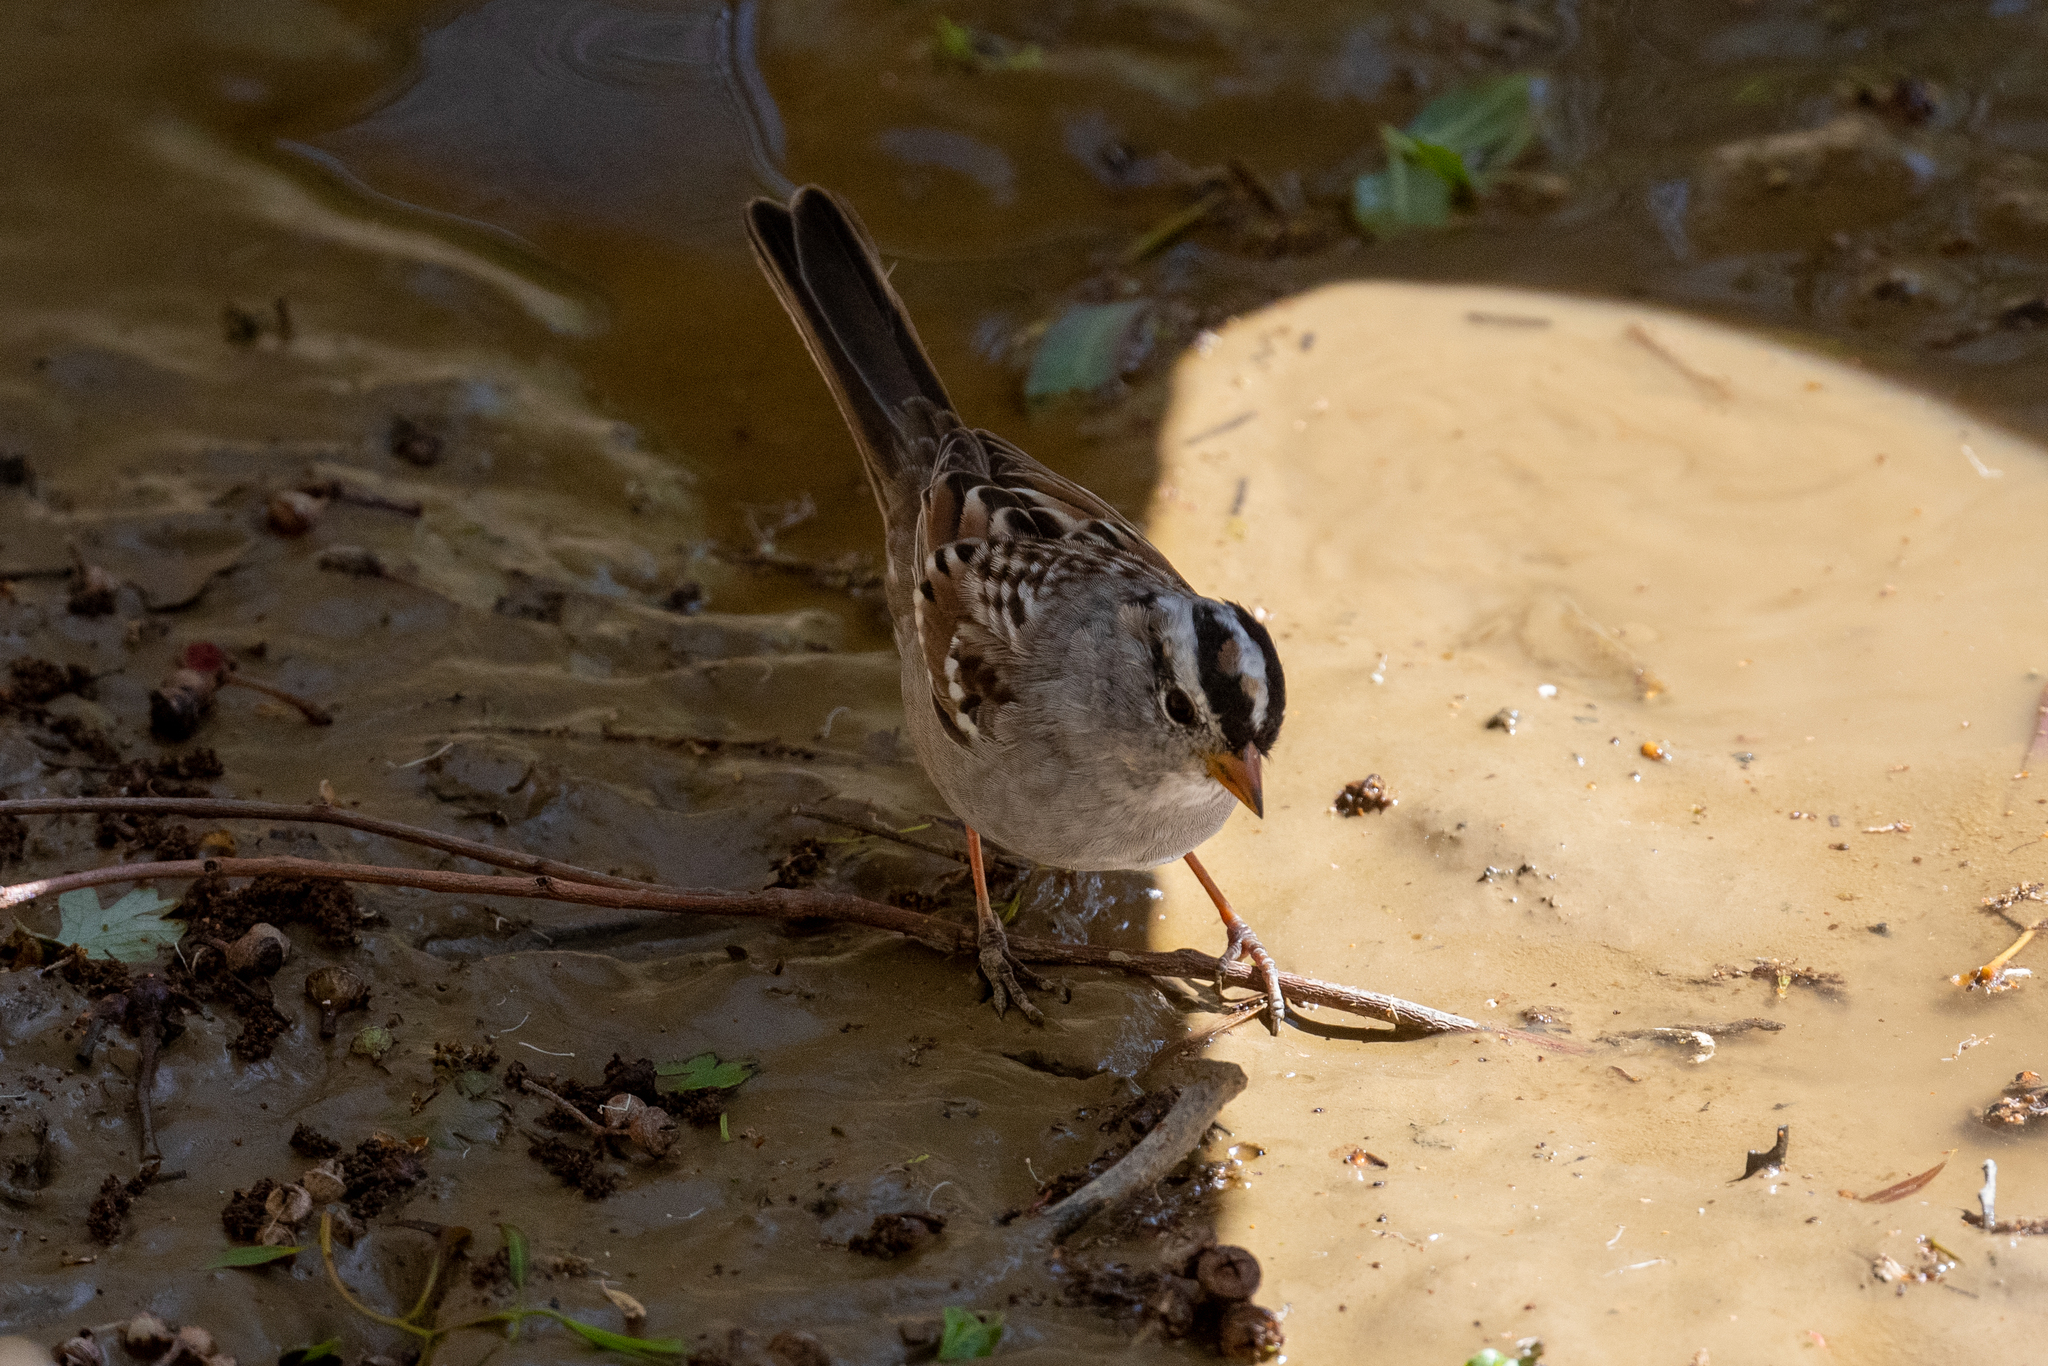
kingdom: Animalia
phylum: Chordata
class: Aves
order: Passeriformes
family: Passerellidae
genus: Zonotrichia
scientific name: Zonotrichia leucophrys
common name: White-crowned sparrow
